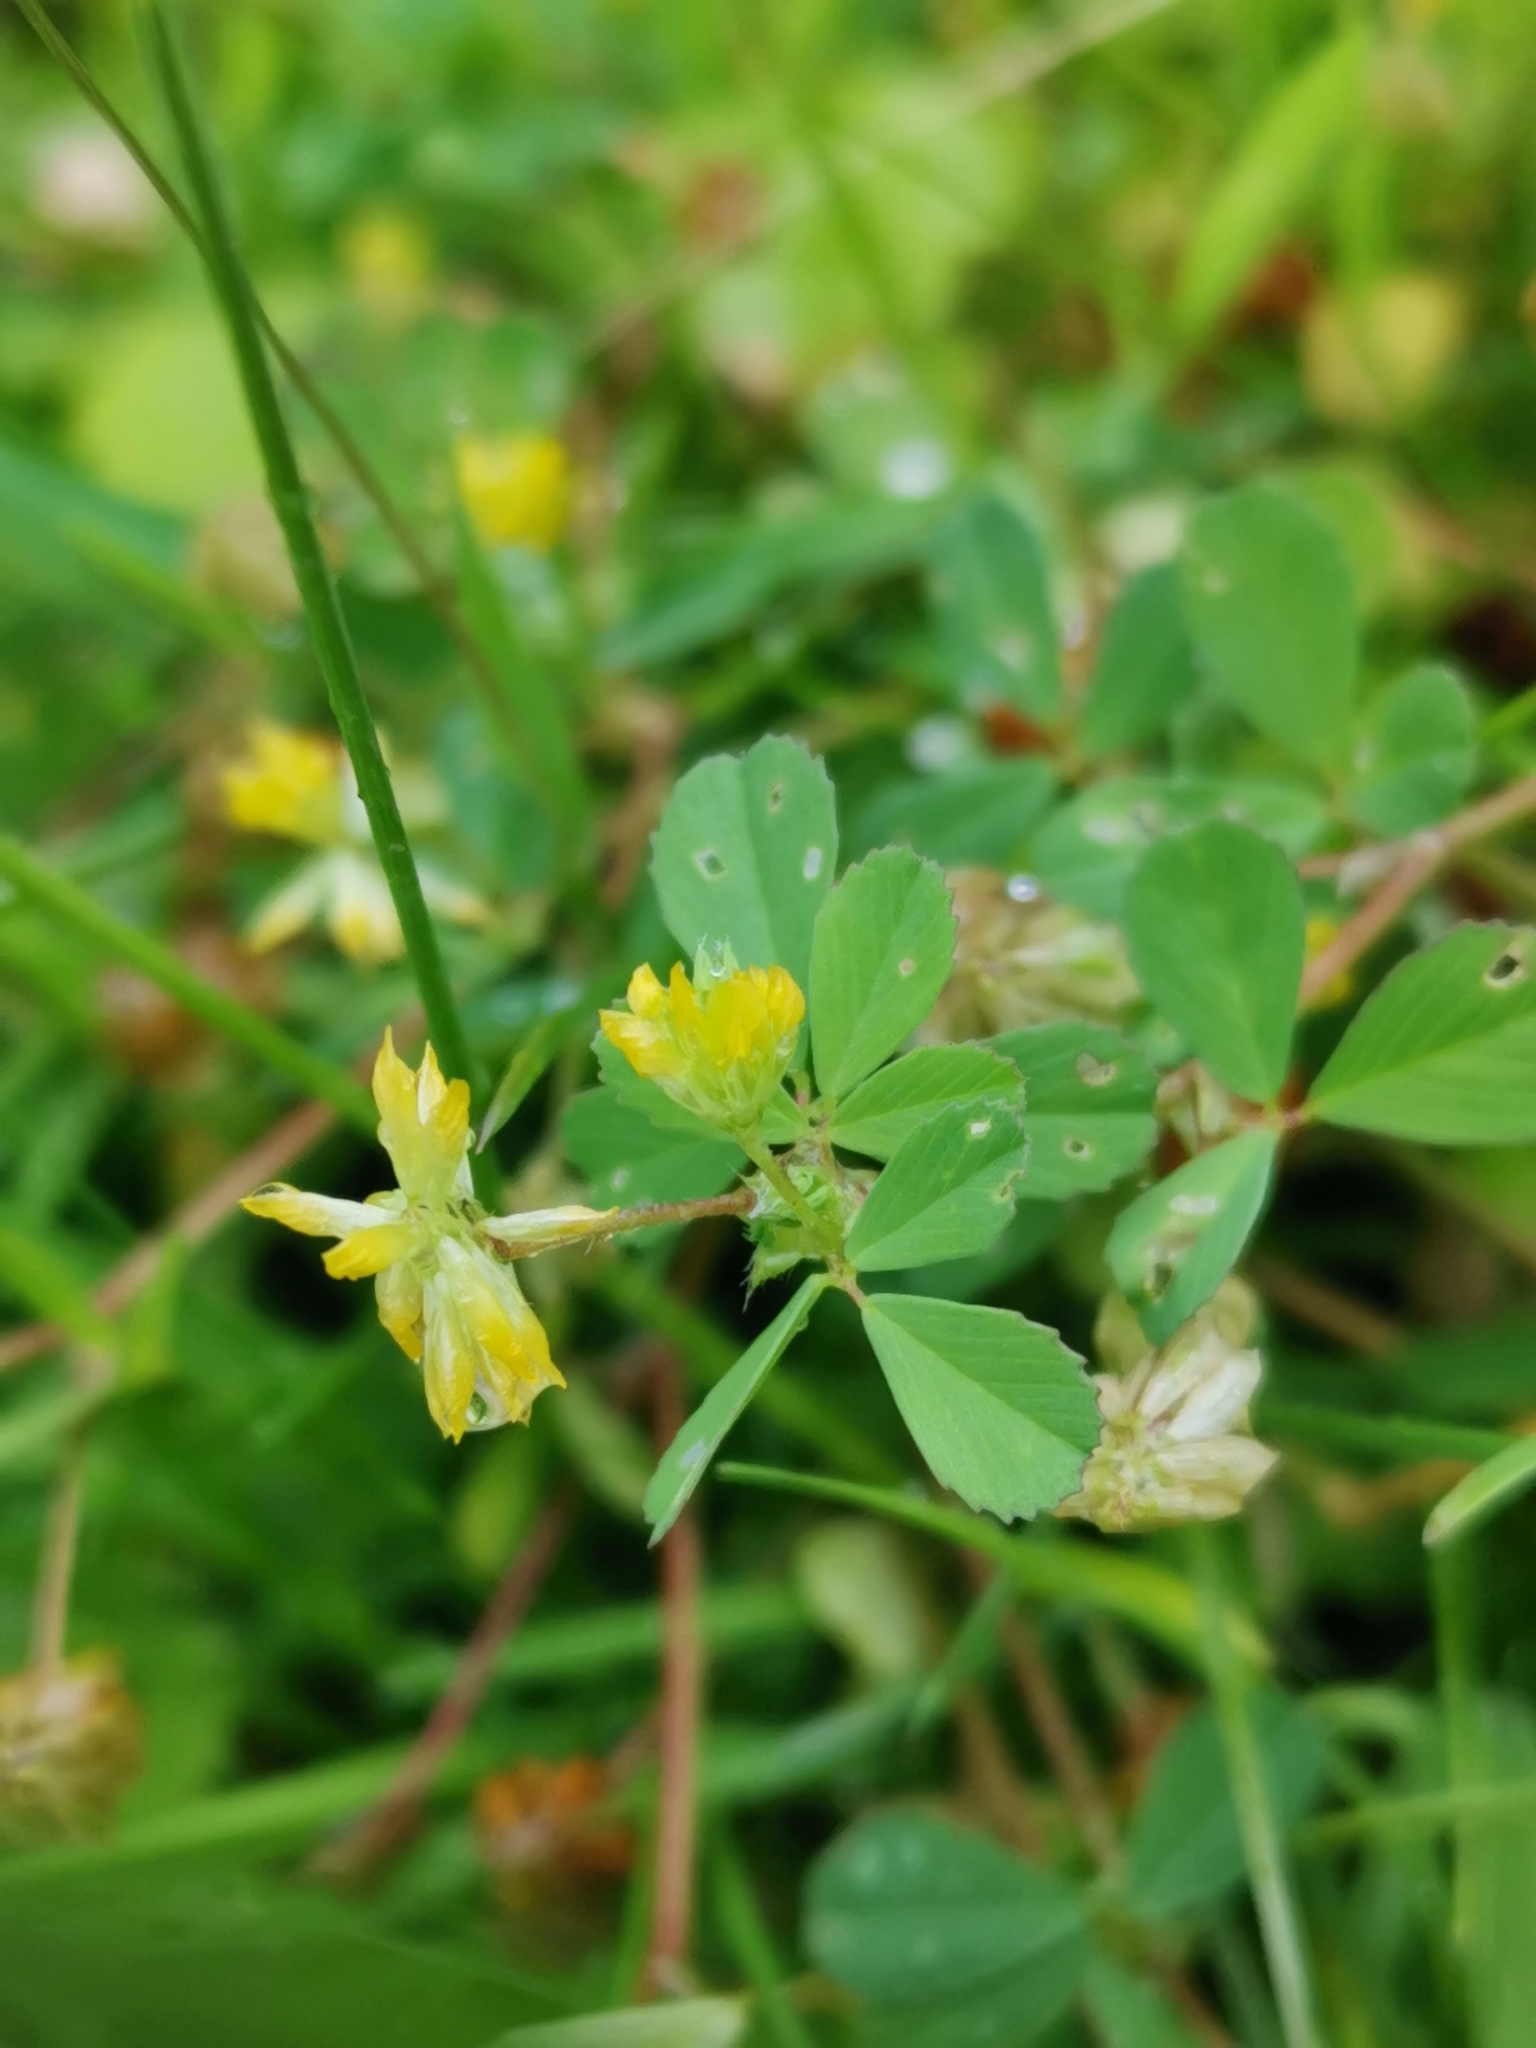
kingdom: Plantae
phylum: Tracheophyta
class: Magnoliopsida
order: Fabales
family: Fabaceae
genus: Trifolium
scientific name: Trifolium dubium
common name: Suckling clover
